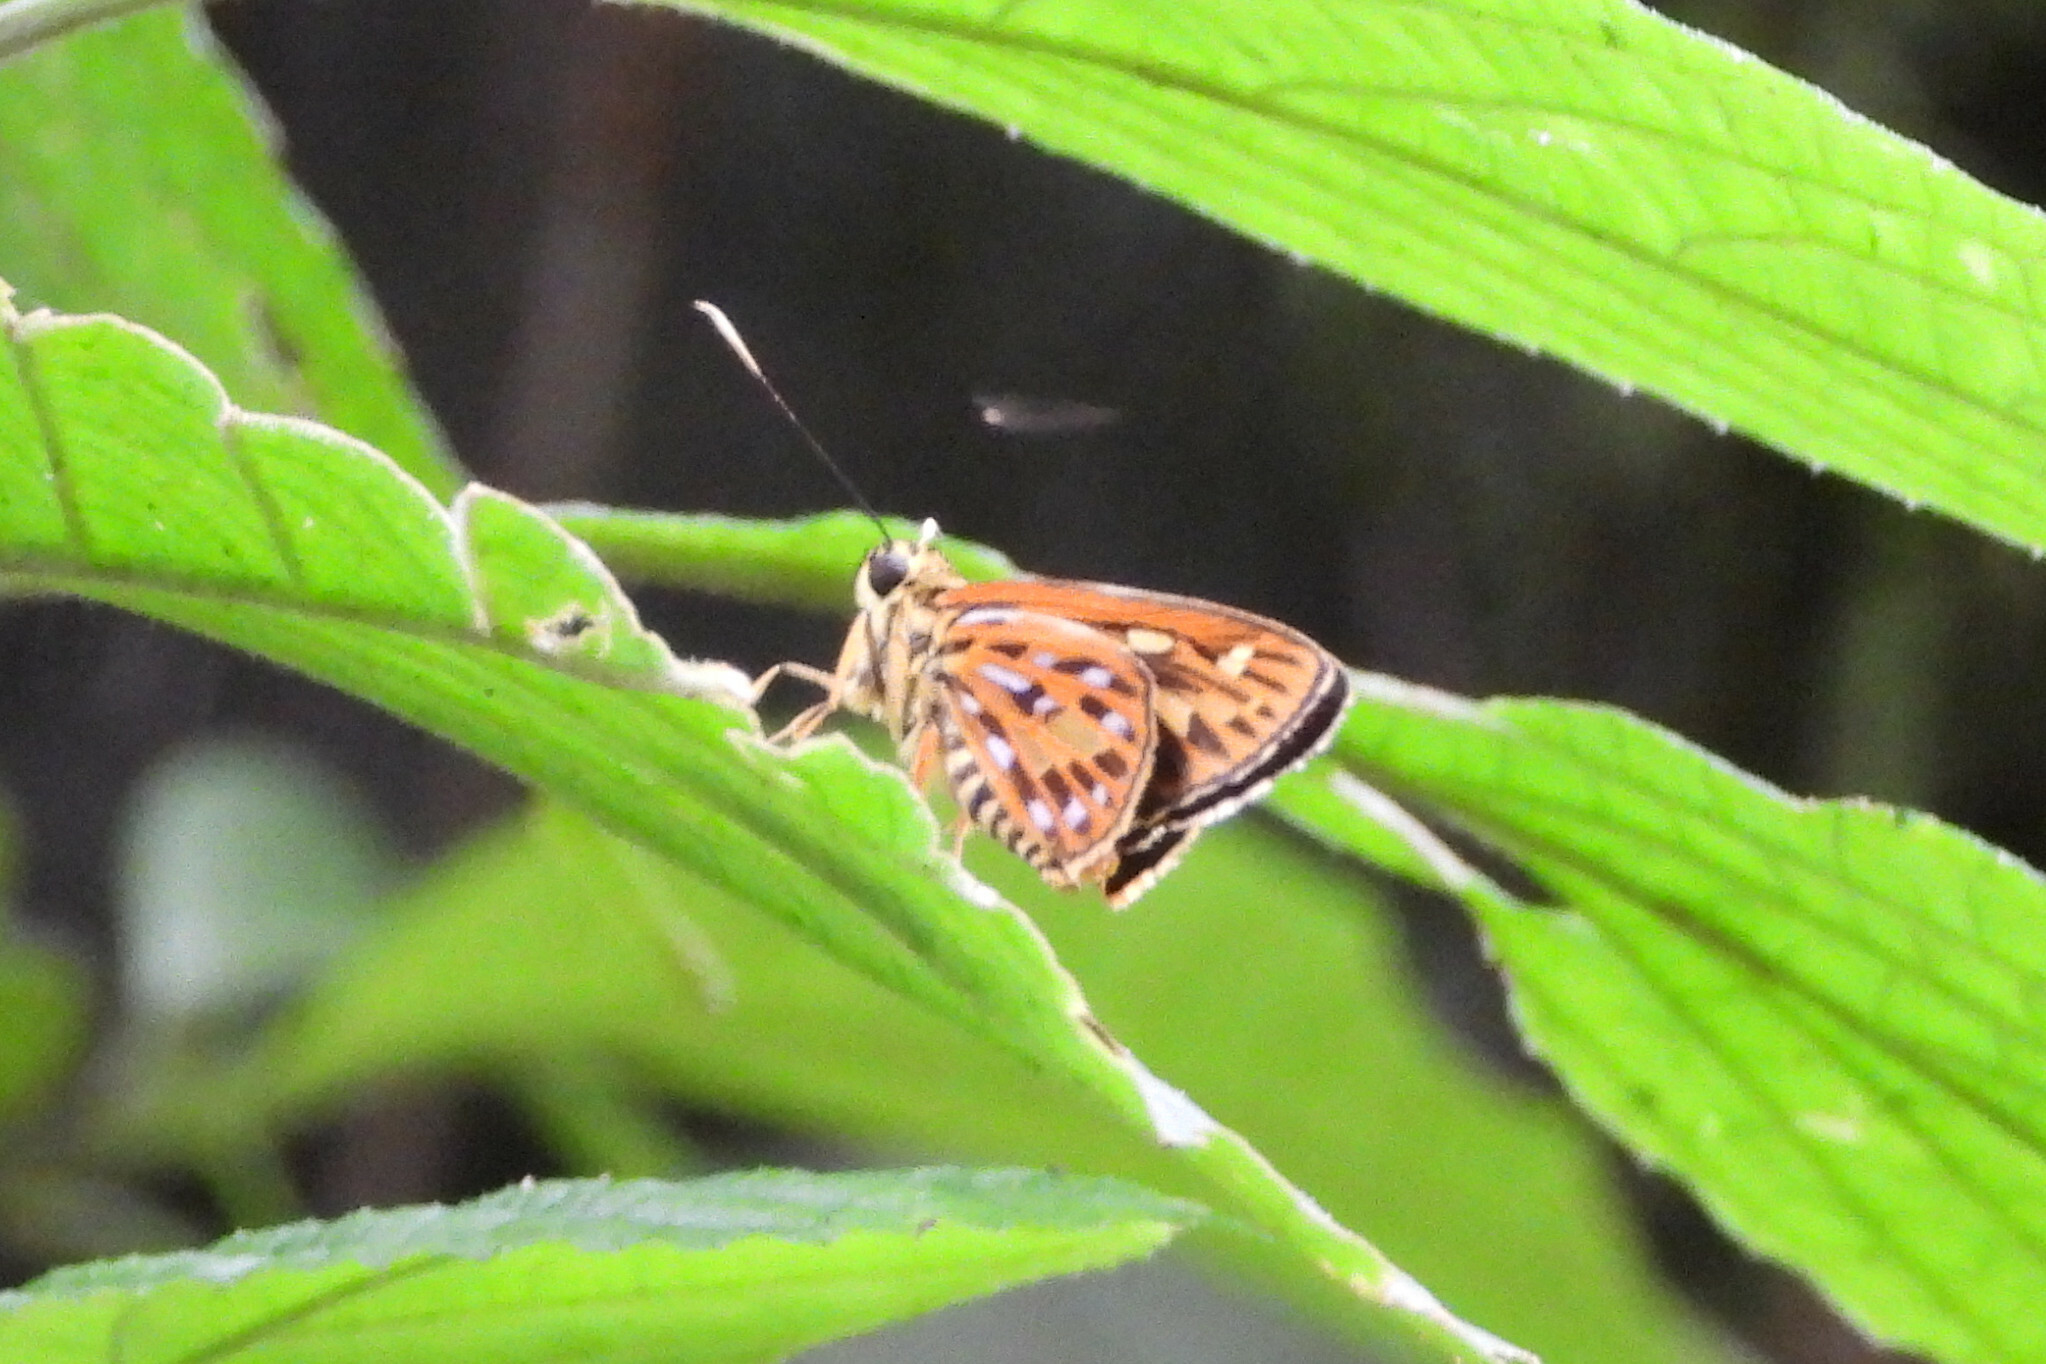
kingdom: Animalia
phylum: Arthropoda
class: Insecta
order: Lepidoptera
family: Hesperiidae
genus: Pyroneura
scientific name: Pyroneura margherita
